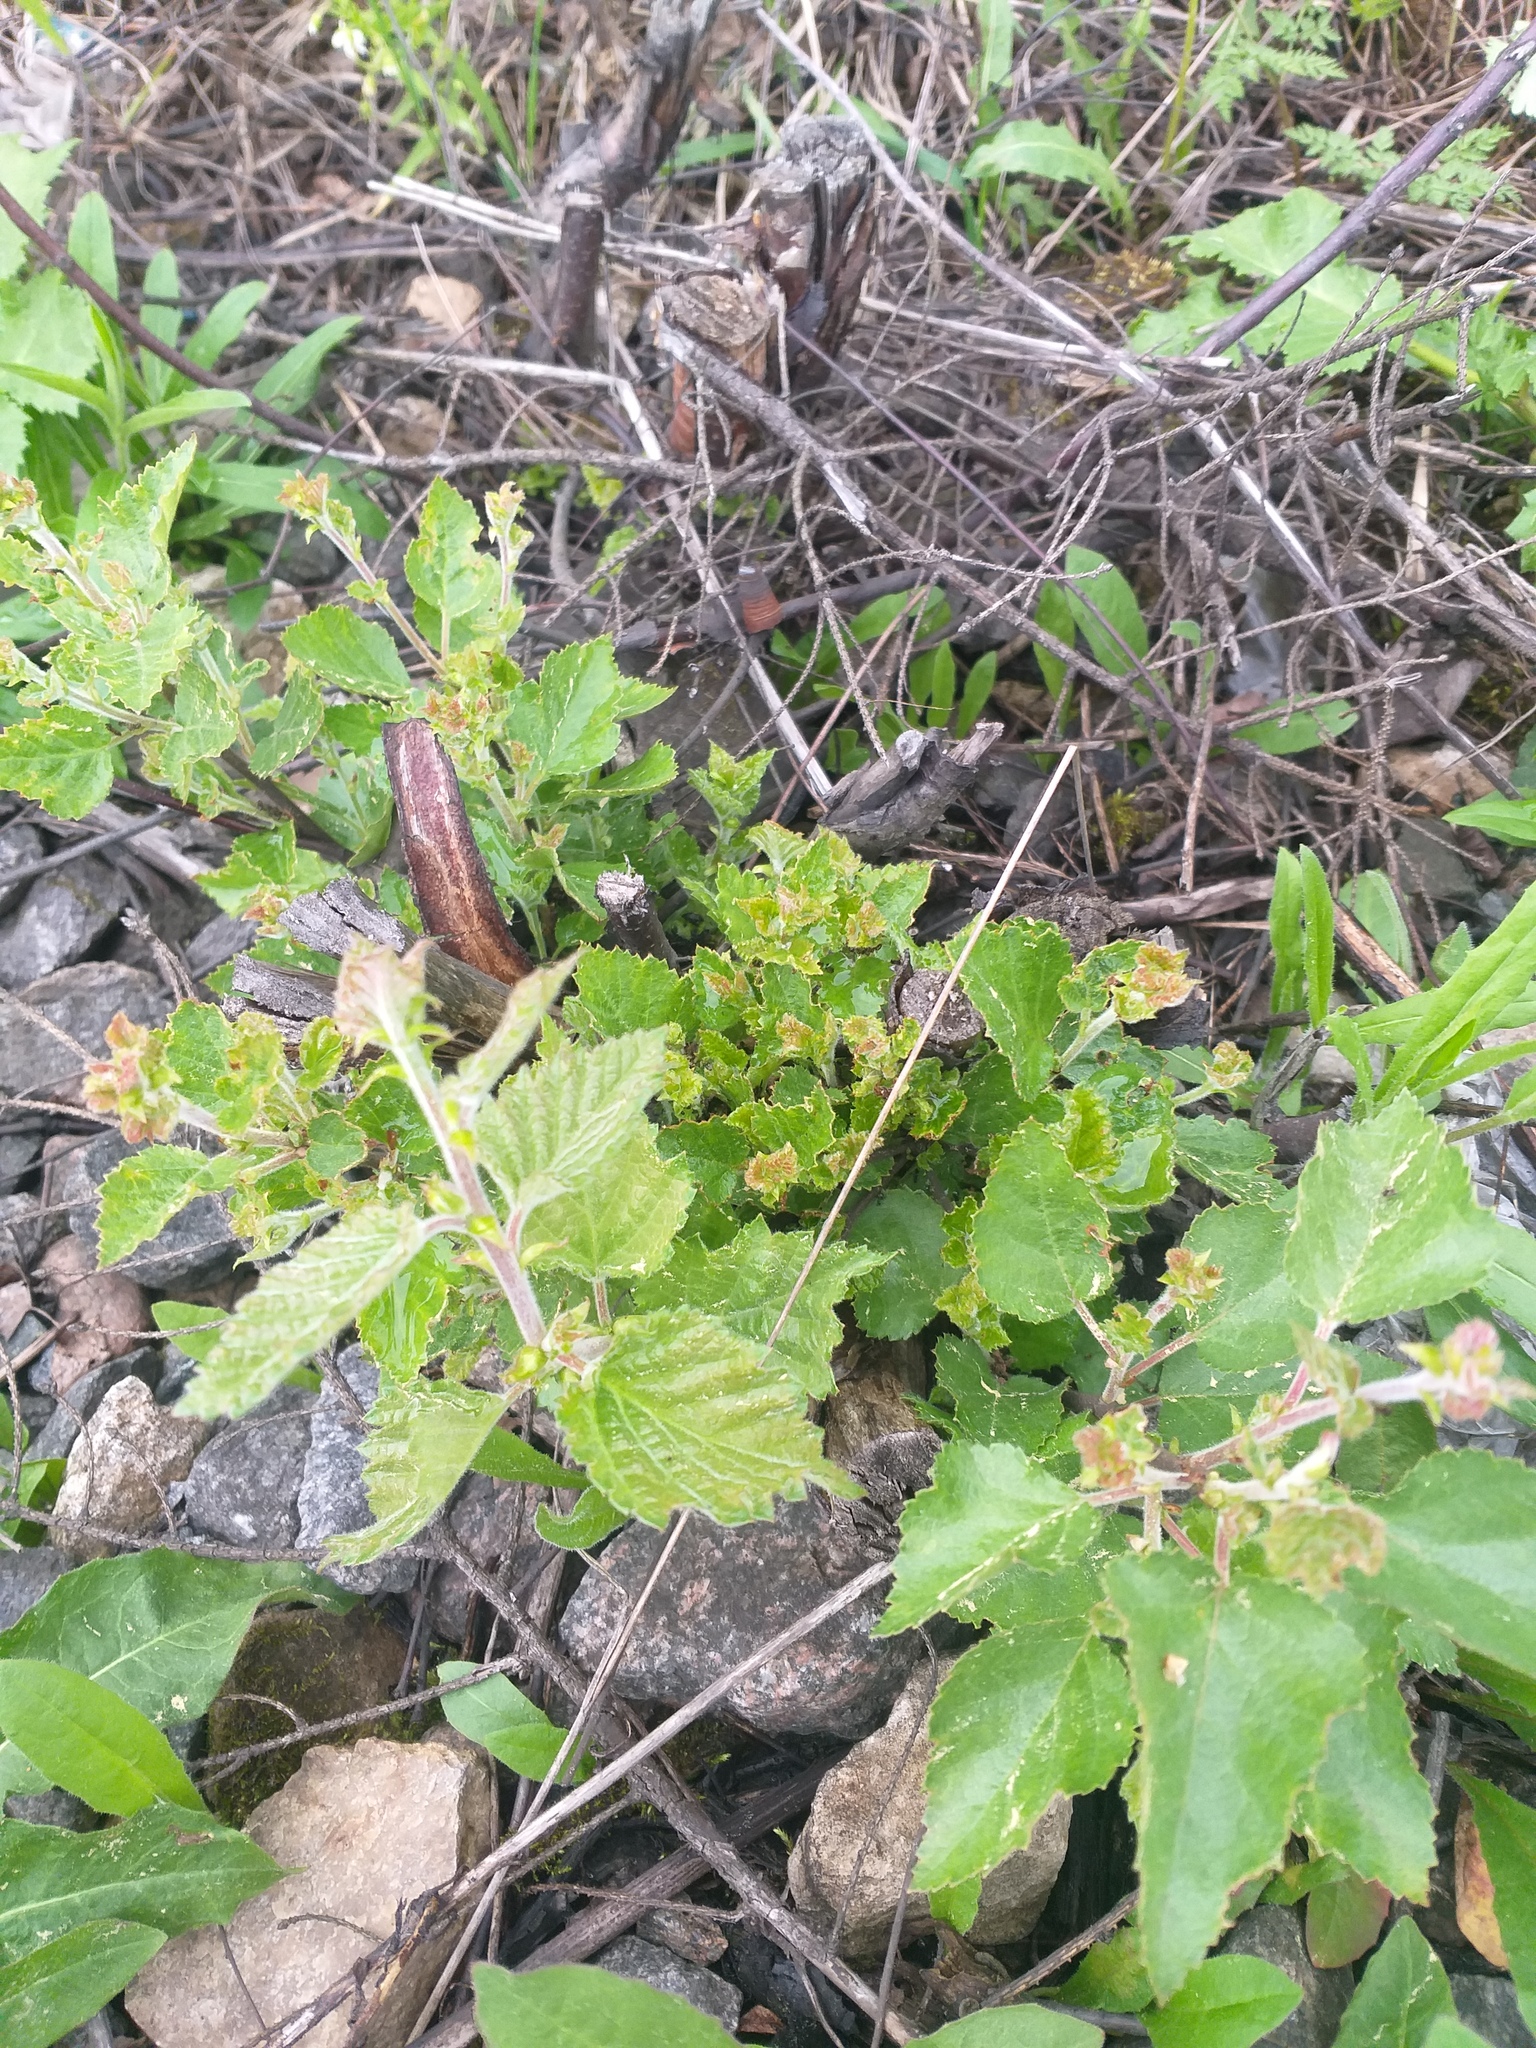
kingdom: Plantae
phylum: Tracheophyta
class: Magnoliopsida
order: Fagales
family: Betulaceae
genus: Betula
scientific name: Betula pubescens
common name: Downy birch
